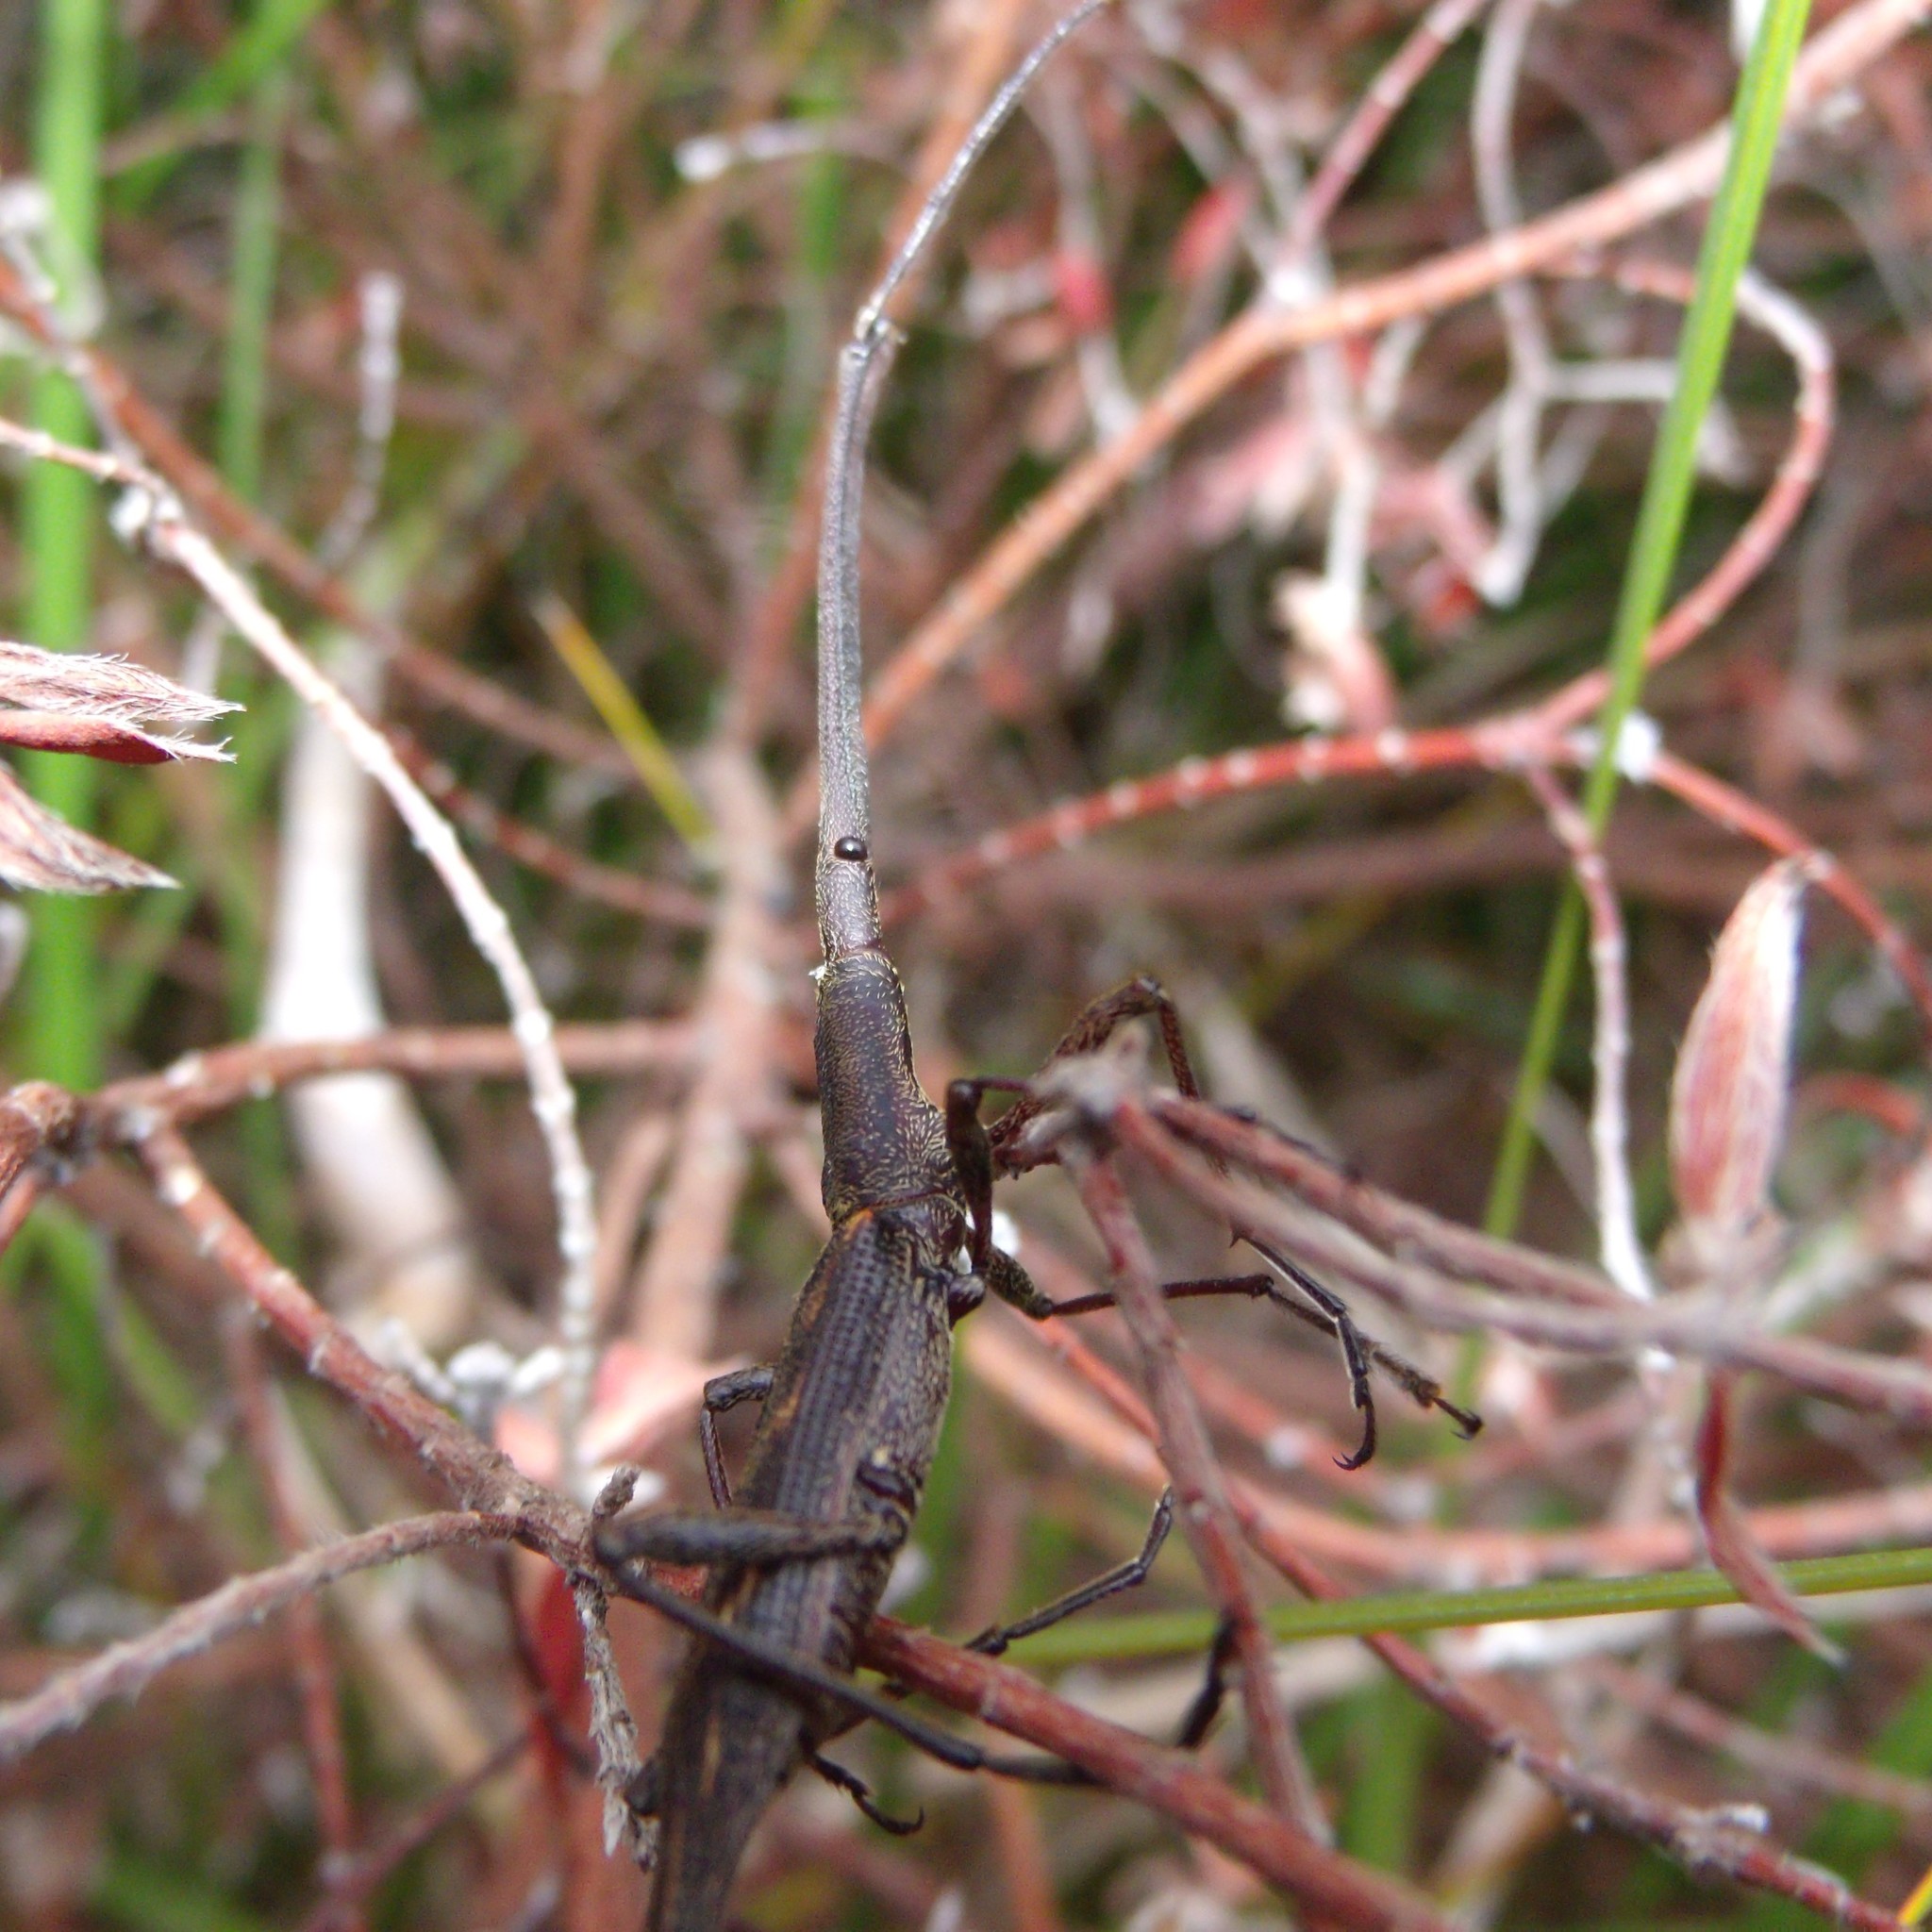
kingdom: Animalia
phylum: Arthropoda
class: Insecta
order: Coleoptera
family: Brentidae
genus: Lasiorhynchus
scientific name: Lasiorhynchus barbicornis
